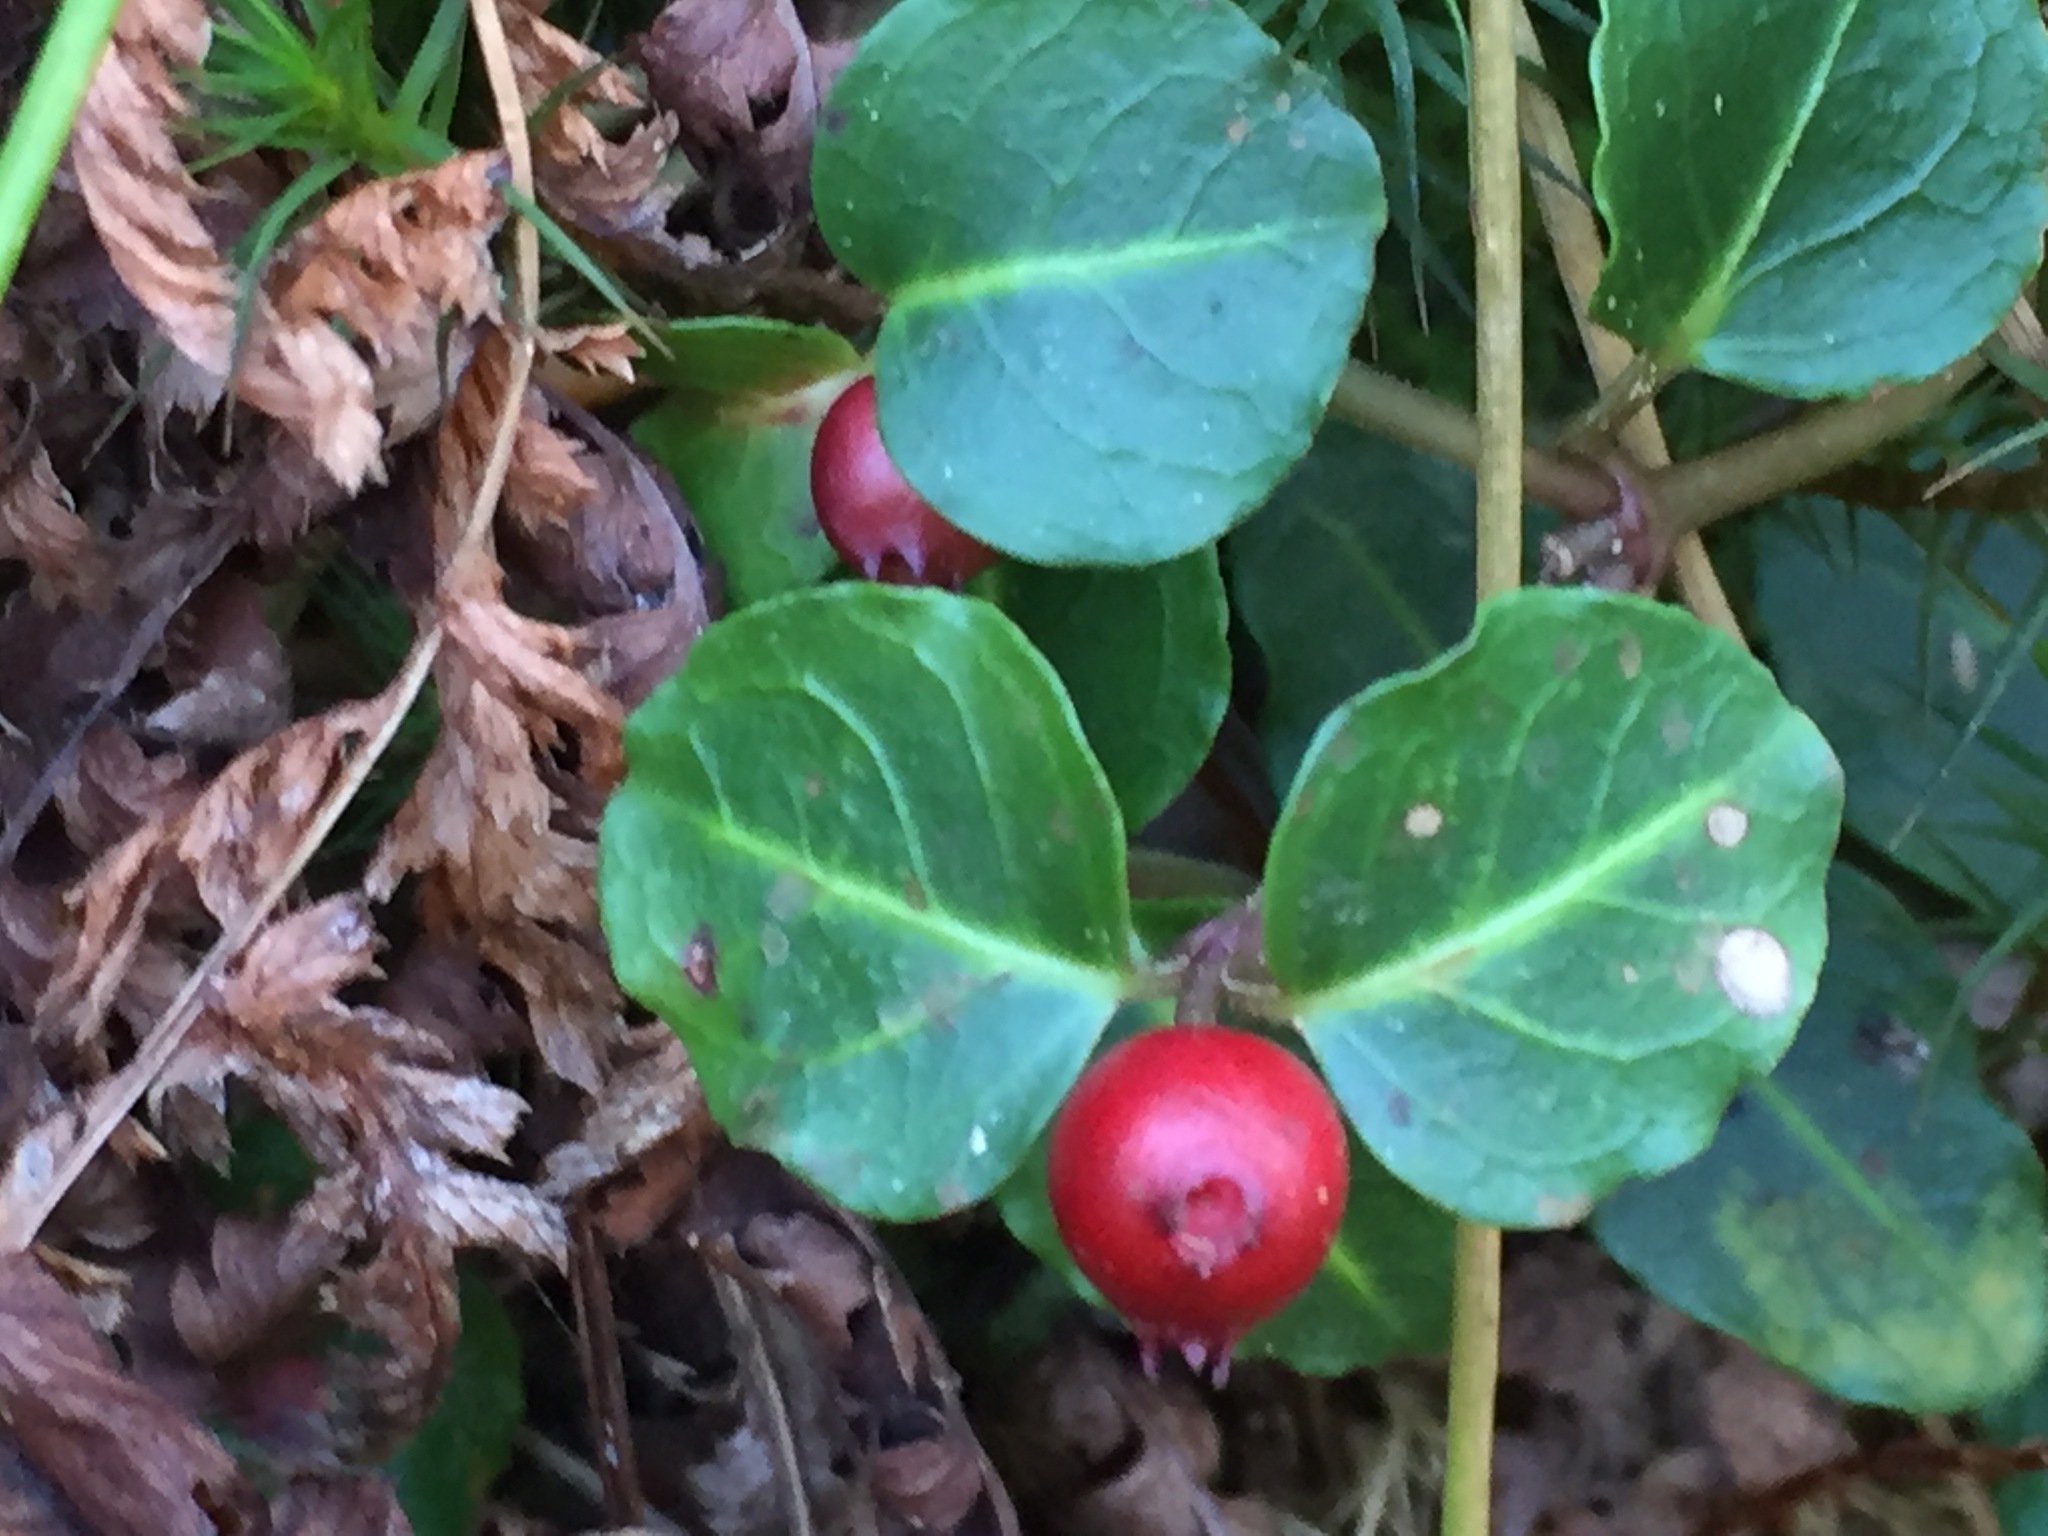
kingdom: Plantae
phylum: Tracheophyta
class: Magnoliopsida
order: Gentianales
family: Rubiaceae
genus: Mitchella
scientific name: Mitchella repens
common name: Partridge-berry
